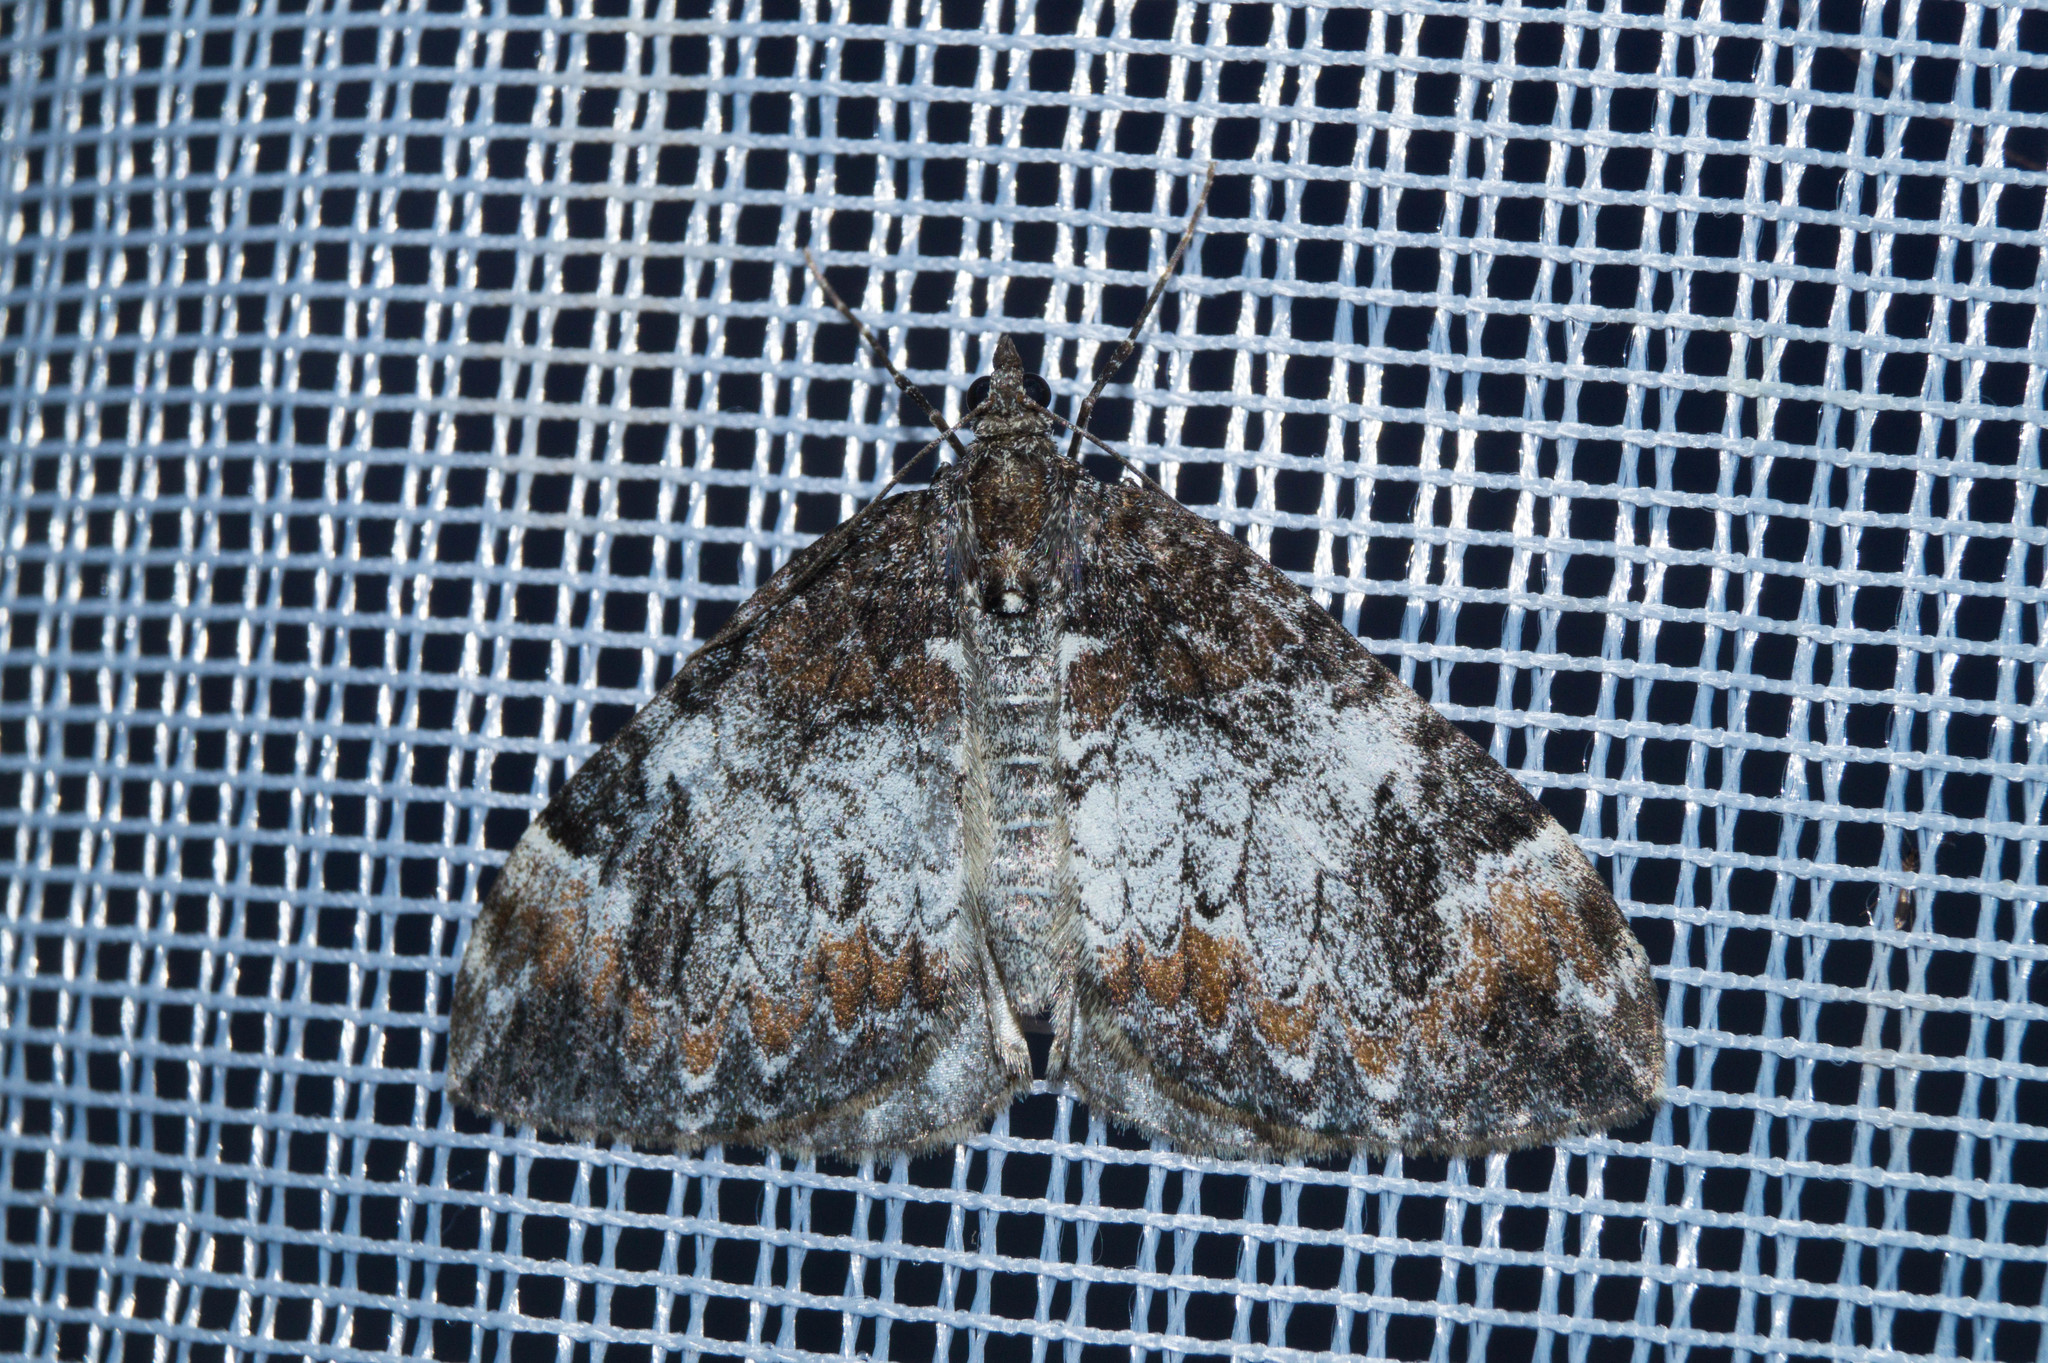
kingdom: Animalia
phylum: Arthropoda
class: Insecta
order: Lepidoptera
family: Geometridae
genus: Dysstroma
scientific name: Dysstroma truncata
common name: Common marbled carpet
